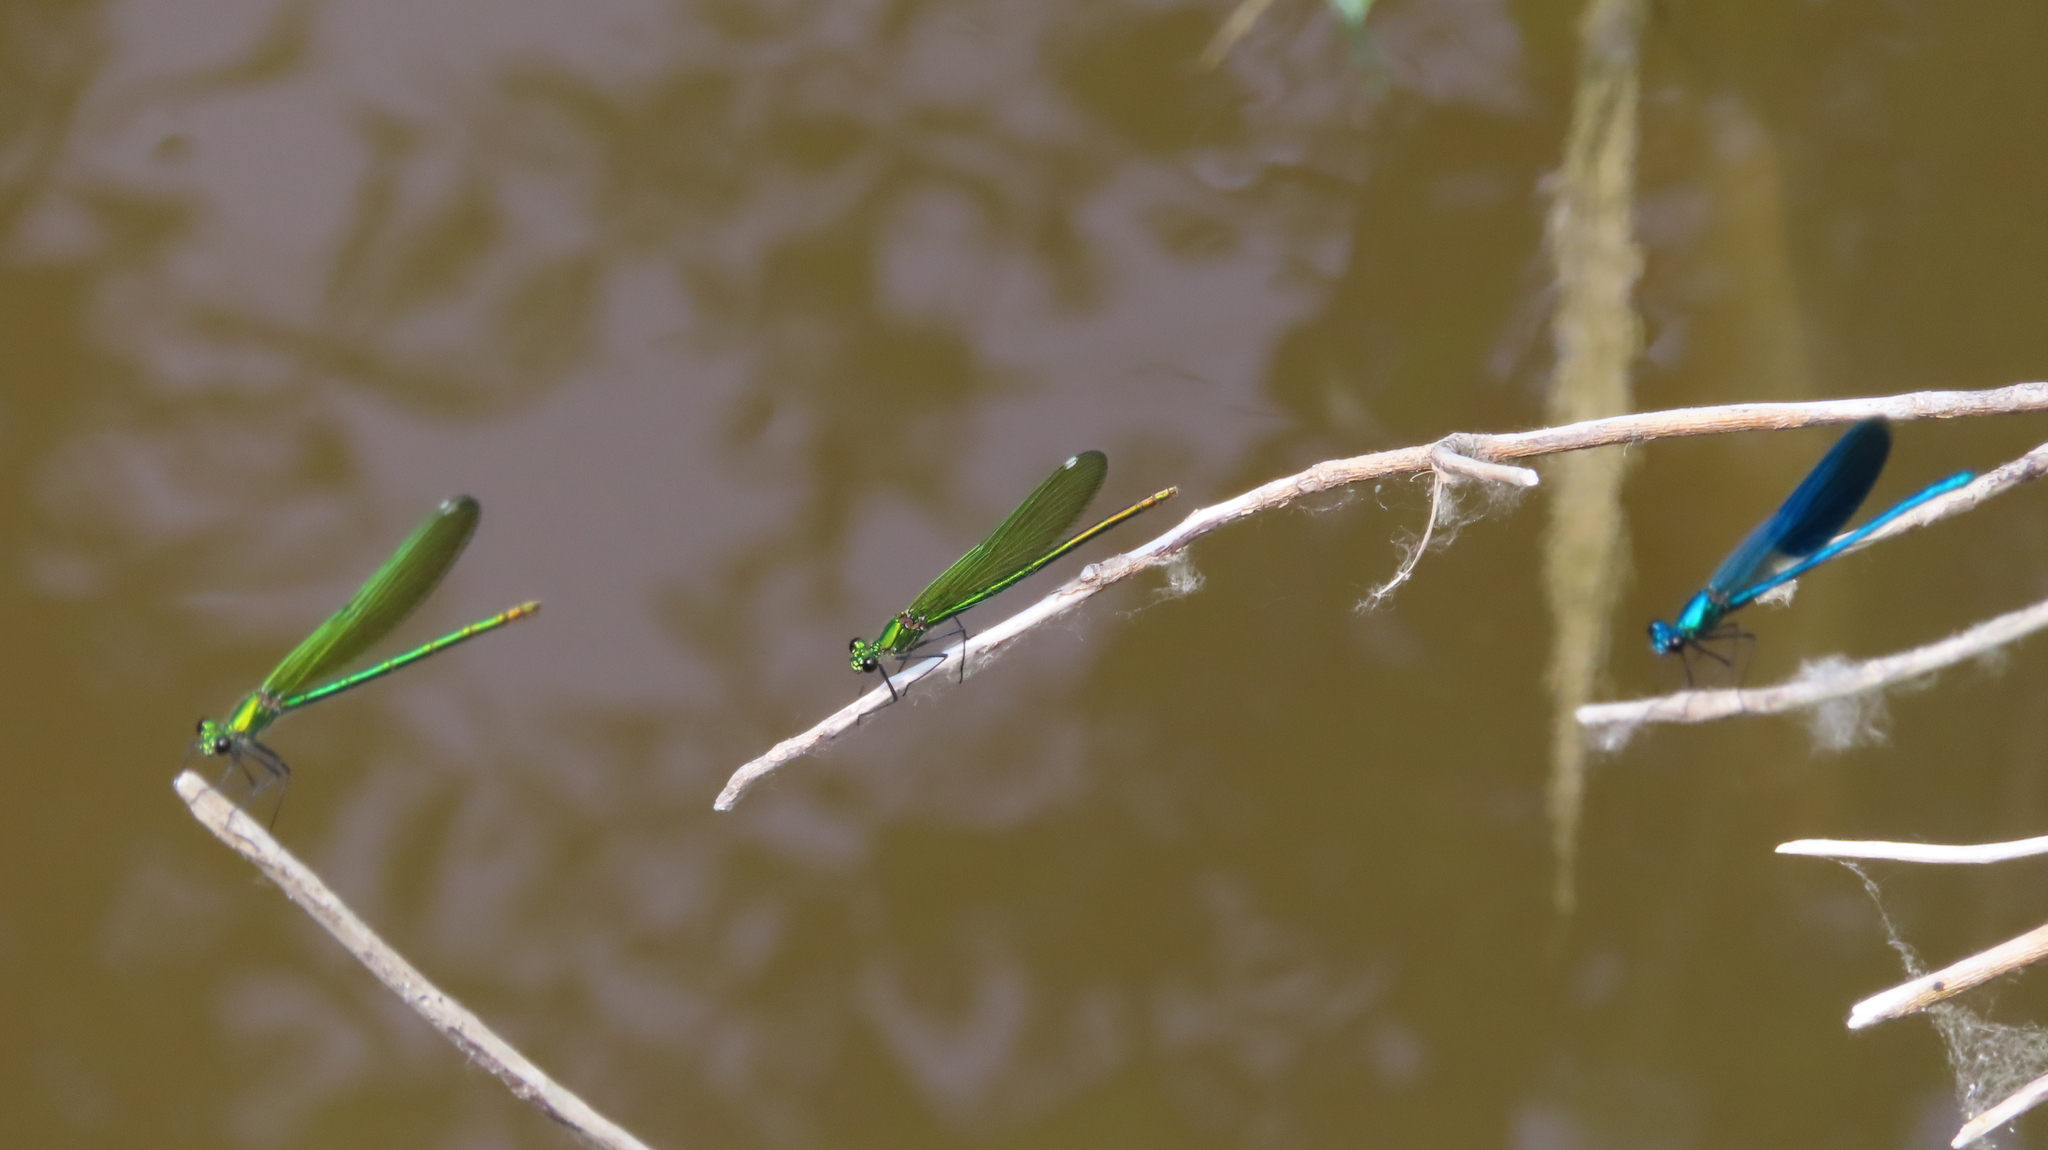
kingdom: Animalia
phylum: Arthropoda
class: Insecta
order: Odonata
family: Calopterygidae
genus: Calopteryx
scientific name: Calopteryx splendens
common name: Banded demoiselle
